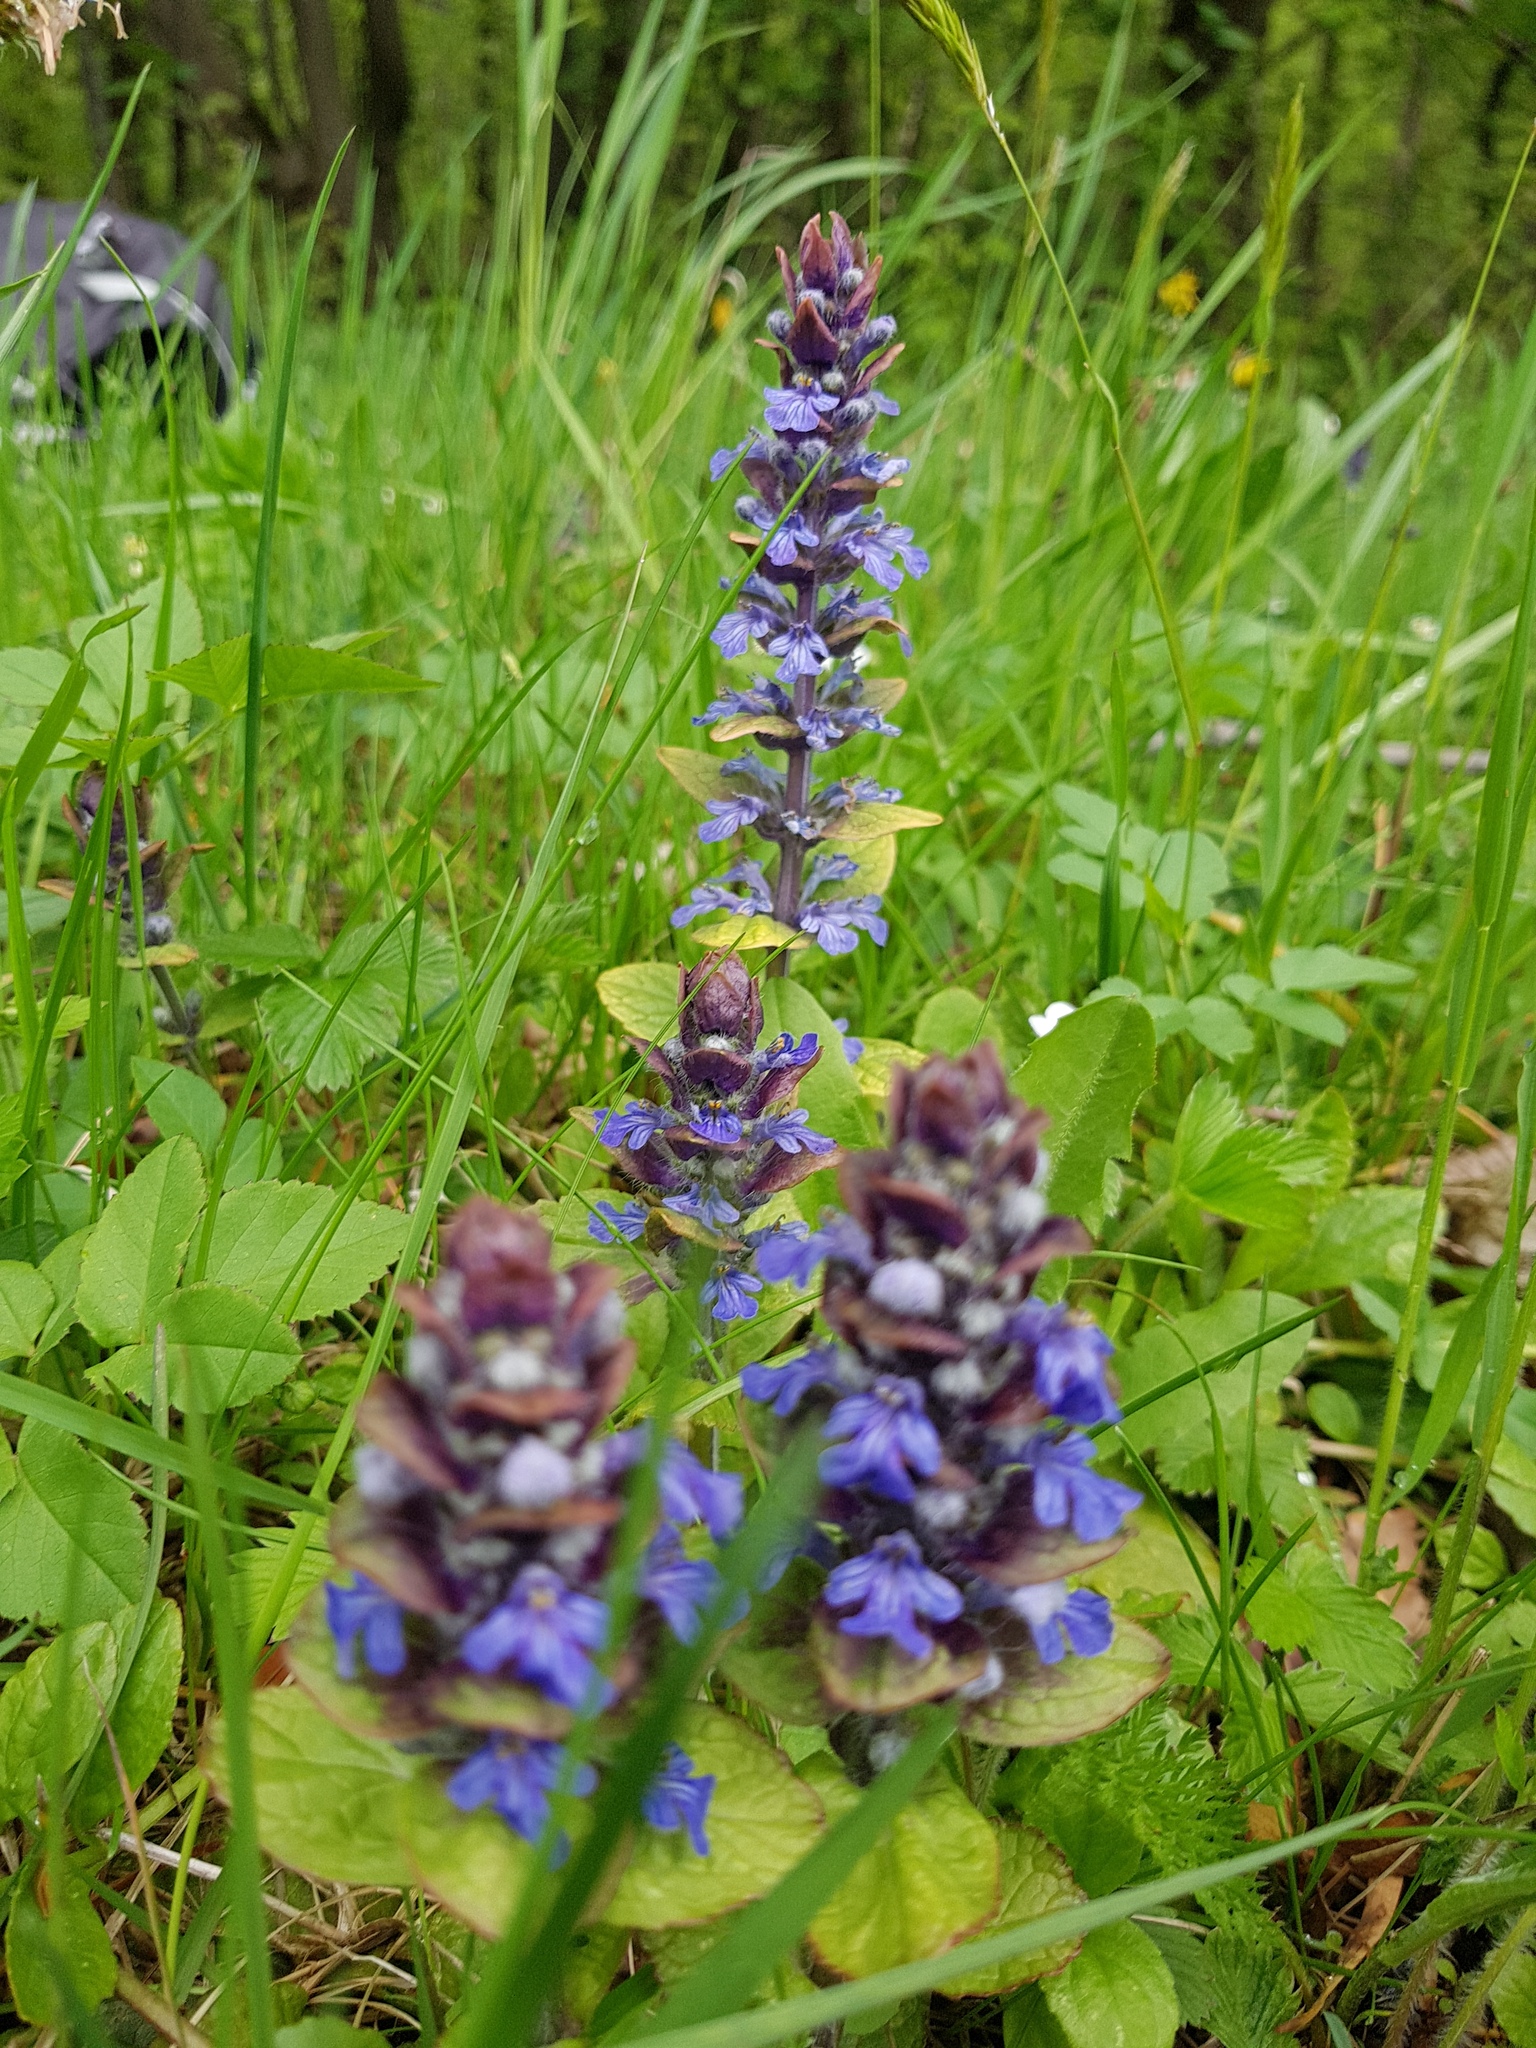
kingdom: Plantae
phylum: Tracheophyta
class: Magnoliopsida
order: Lamiales
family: Lamiaceae
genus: Ajuga
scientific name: Ajuga reptans
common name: Bugle
